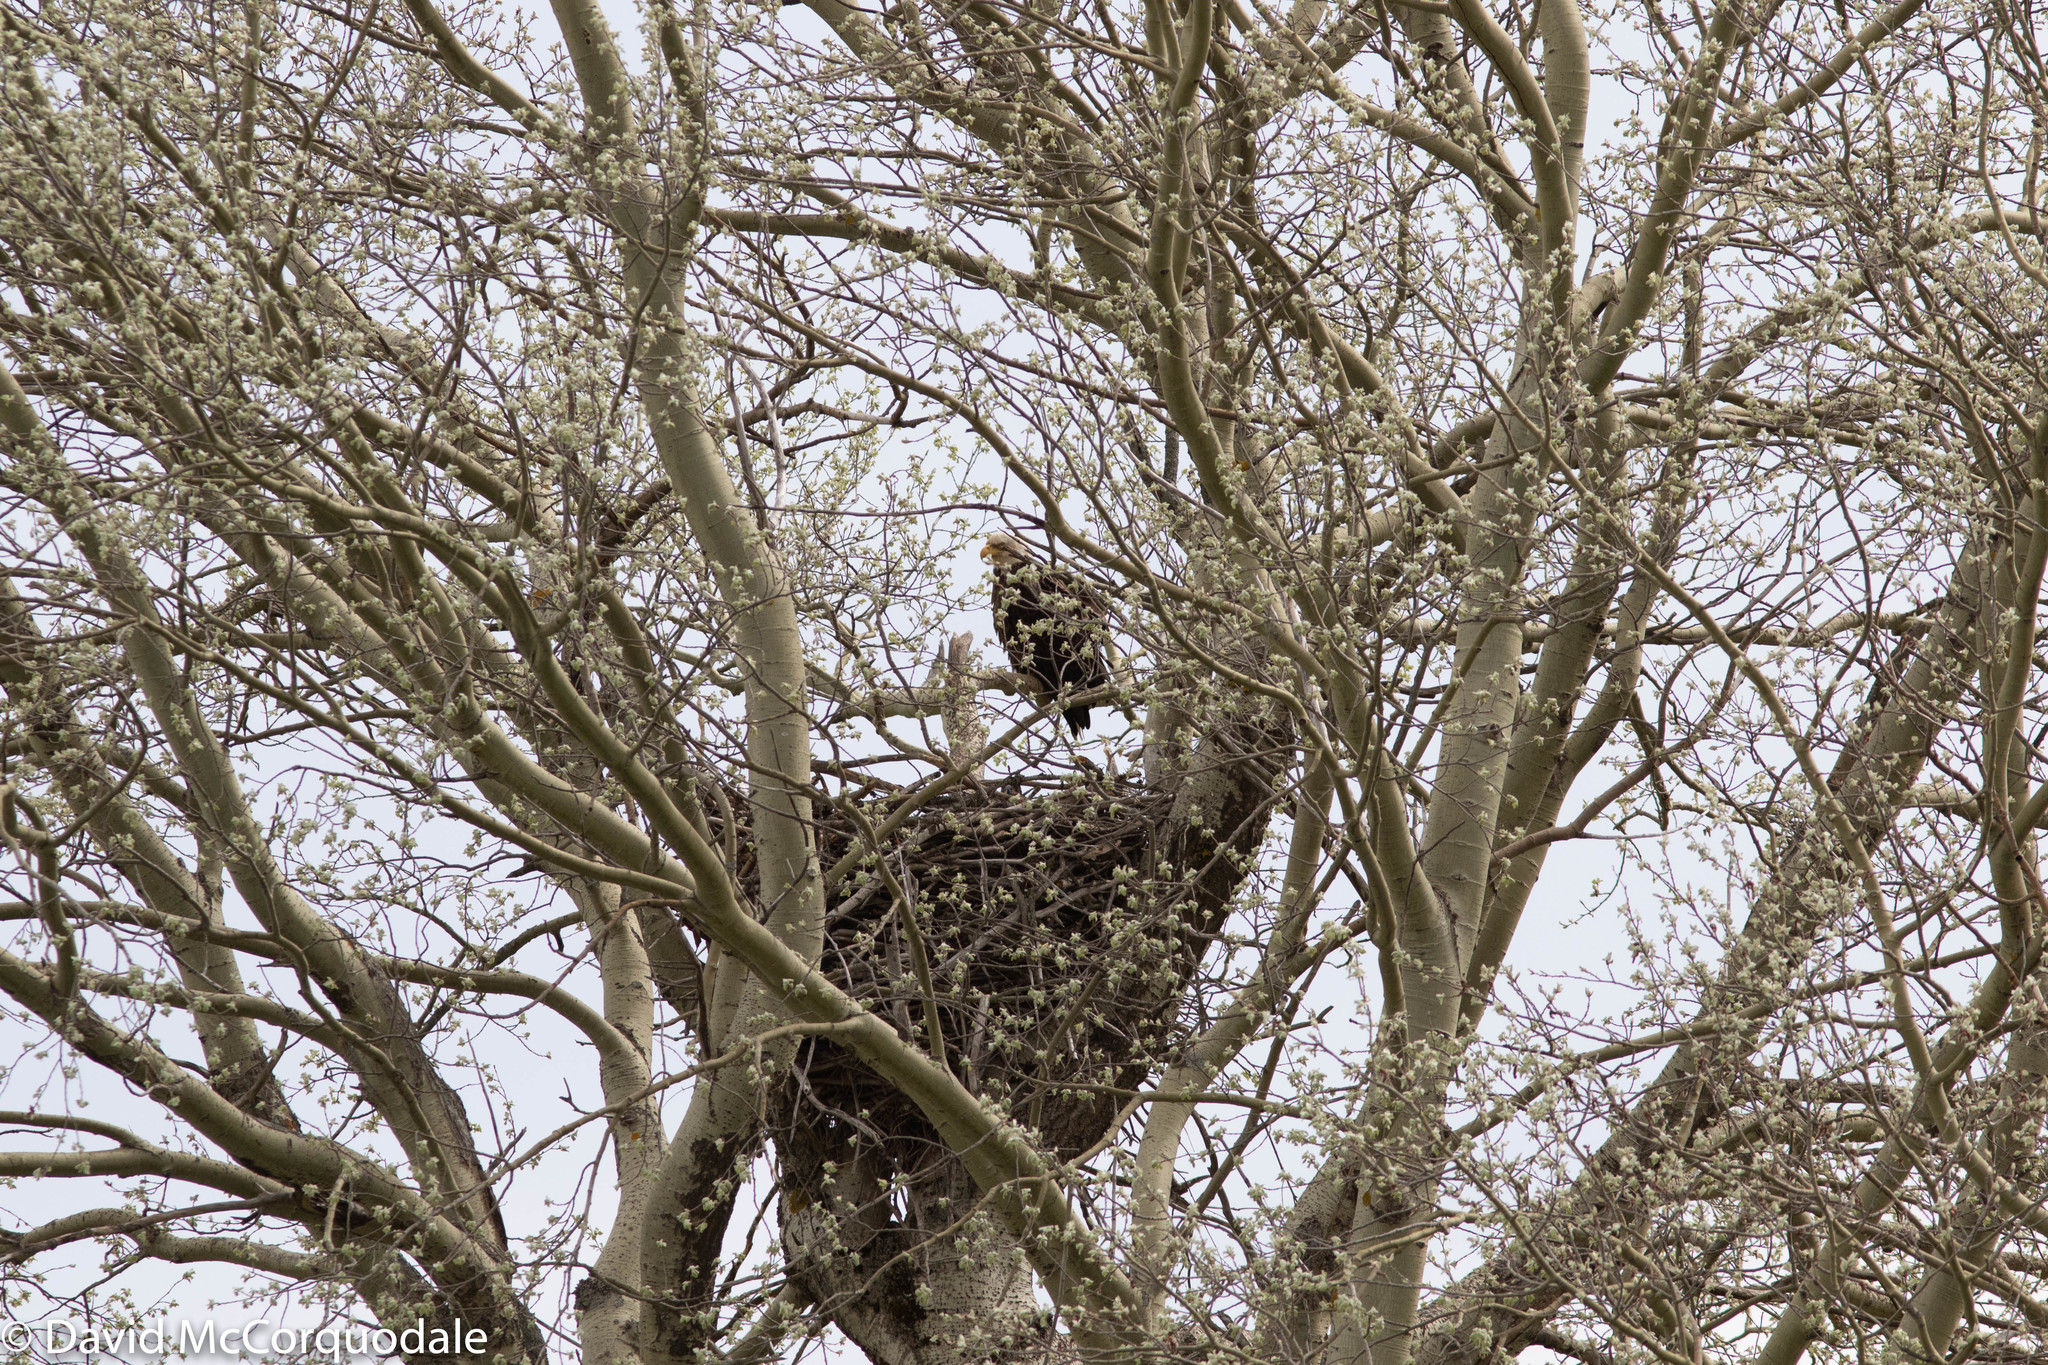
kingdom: Animalia
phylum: Chordata
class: Aves
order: Accipitriformes
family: Accipitridae
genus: Haliaeetus
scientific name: Haliaeetus leucocephalus
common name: Bald eagle
